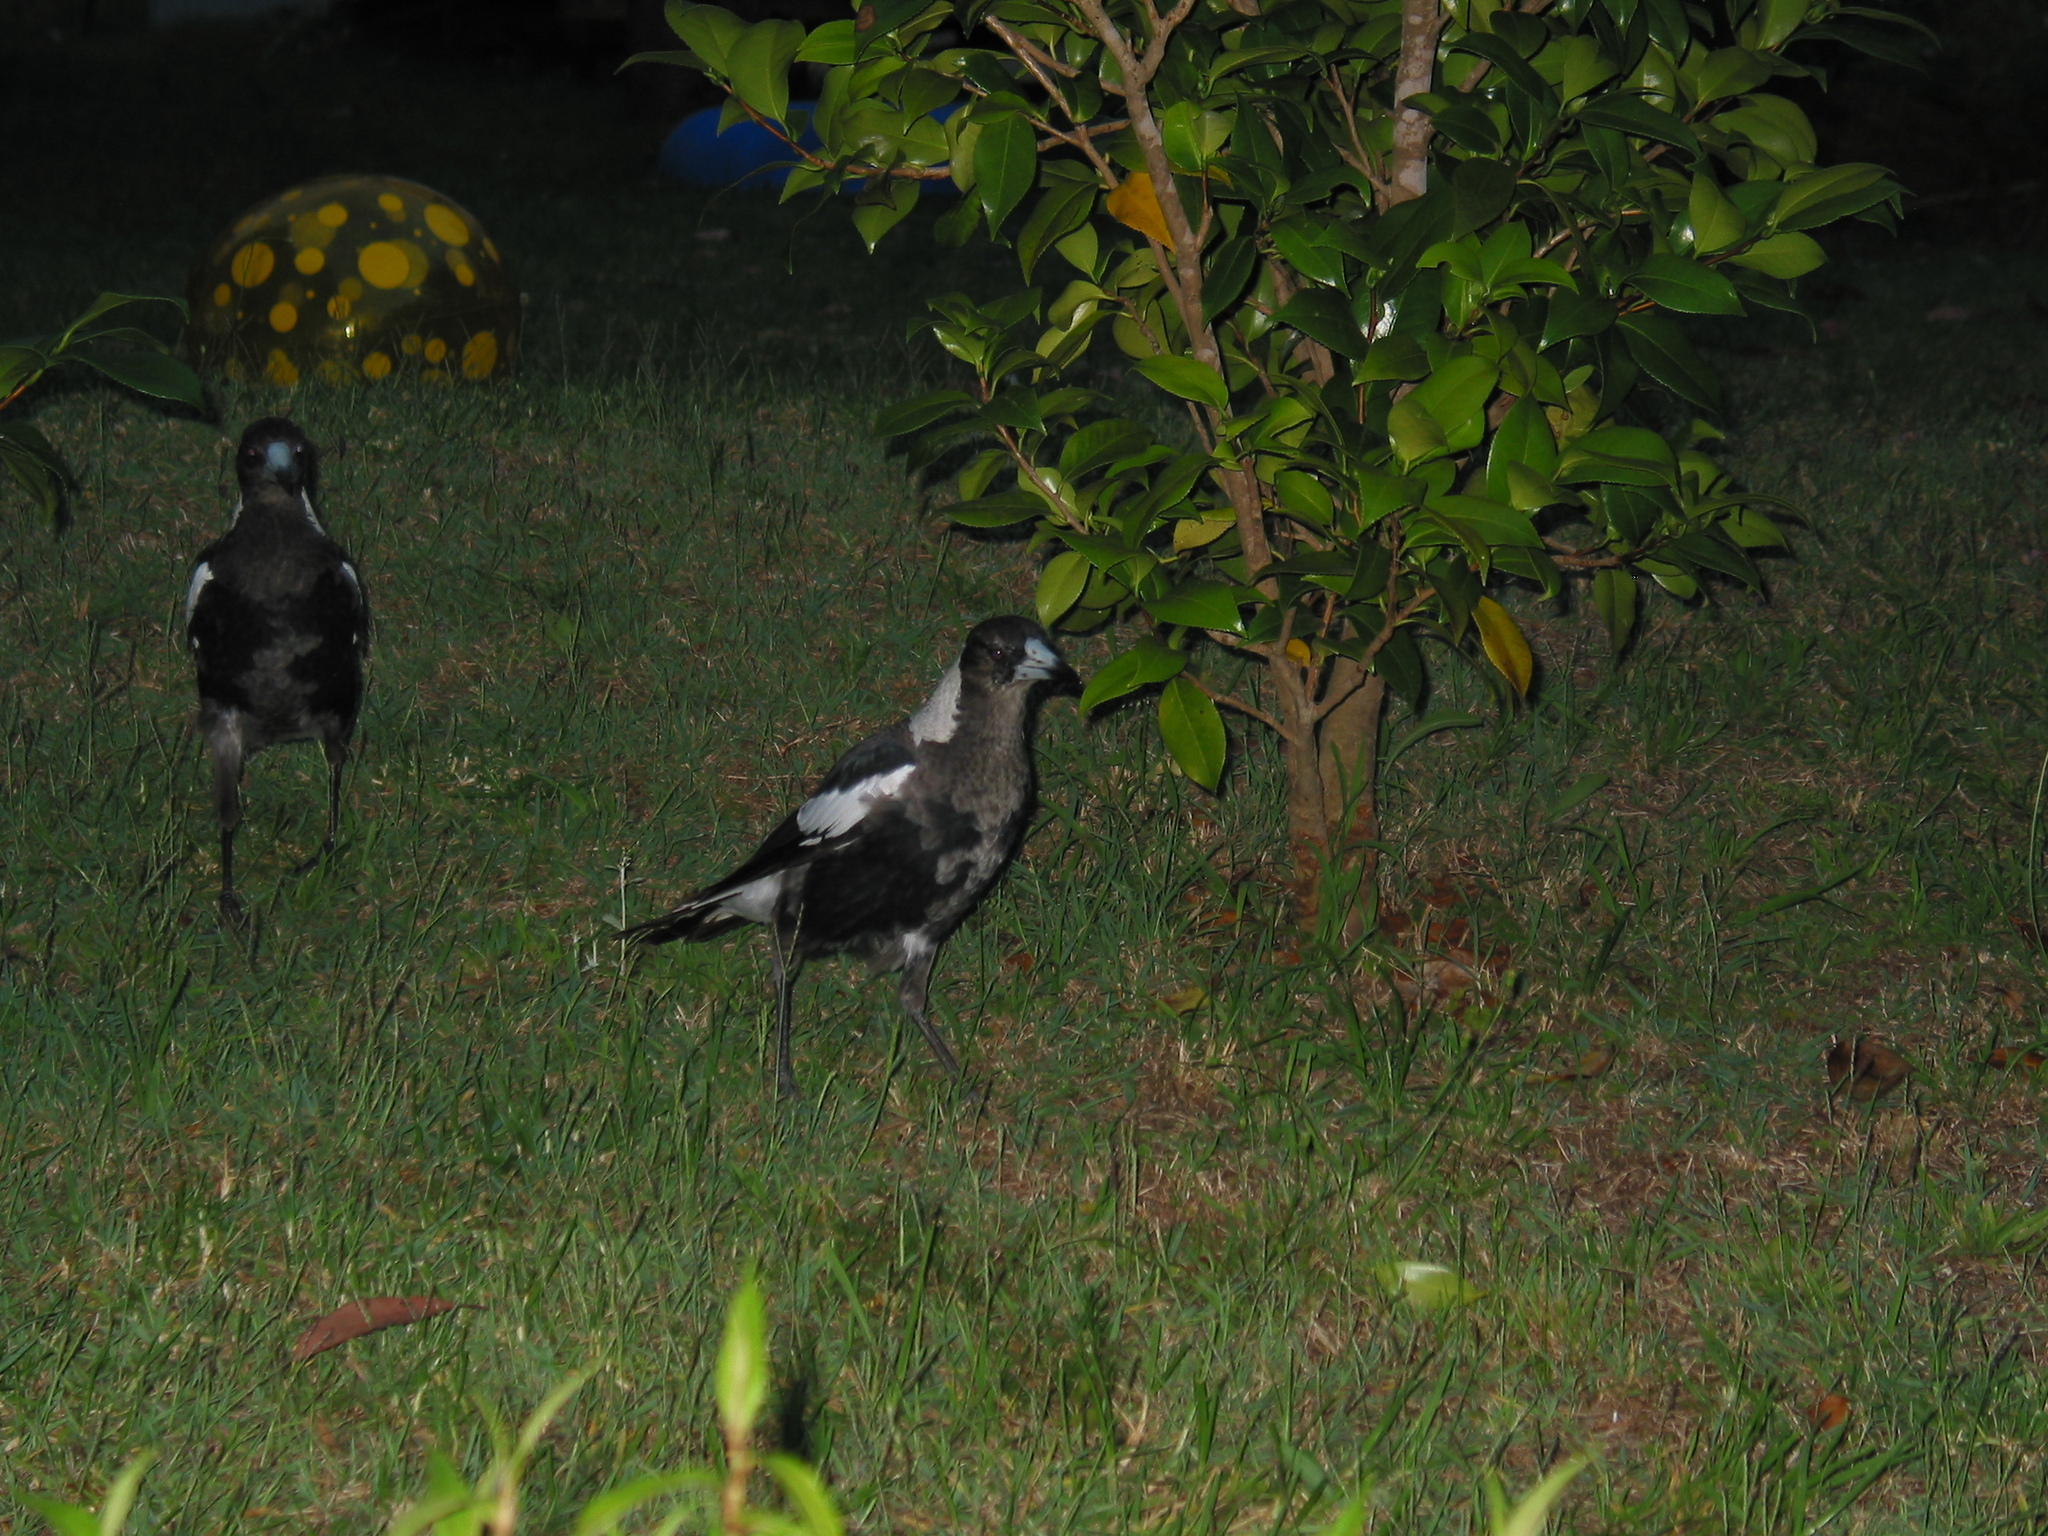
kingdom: Animalia
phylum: Chordata
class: Aves
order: Passeriformes
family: Cracticidae
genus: Gymnorhina
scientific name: Gymnorhina tibicen
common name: Australian magpie
